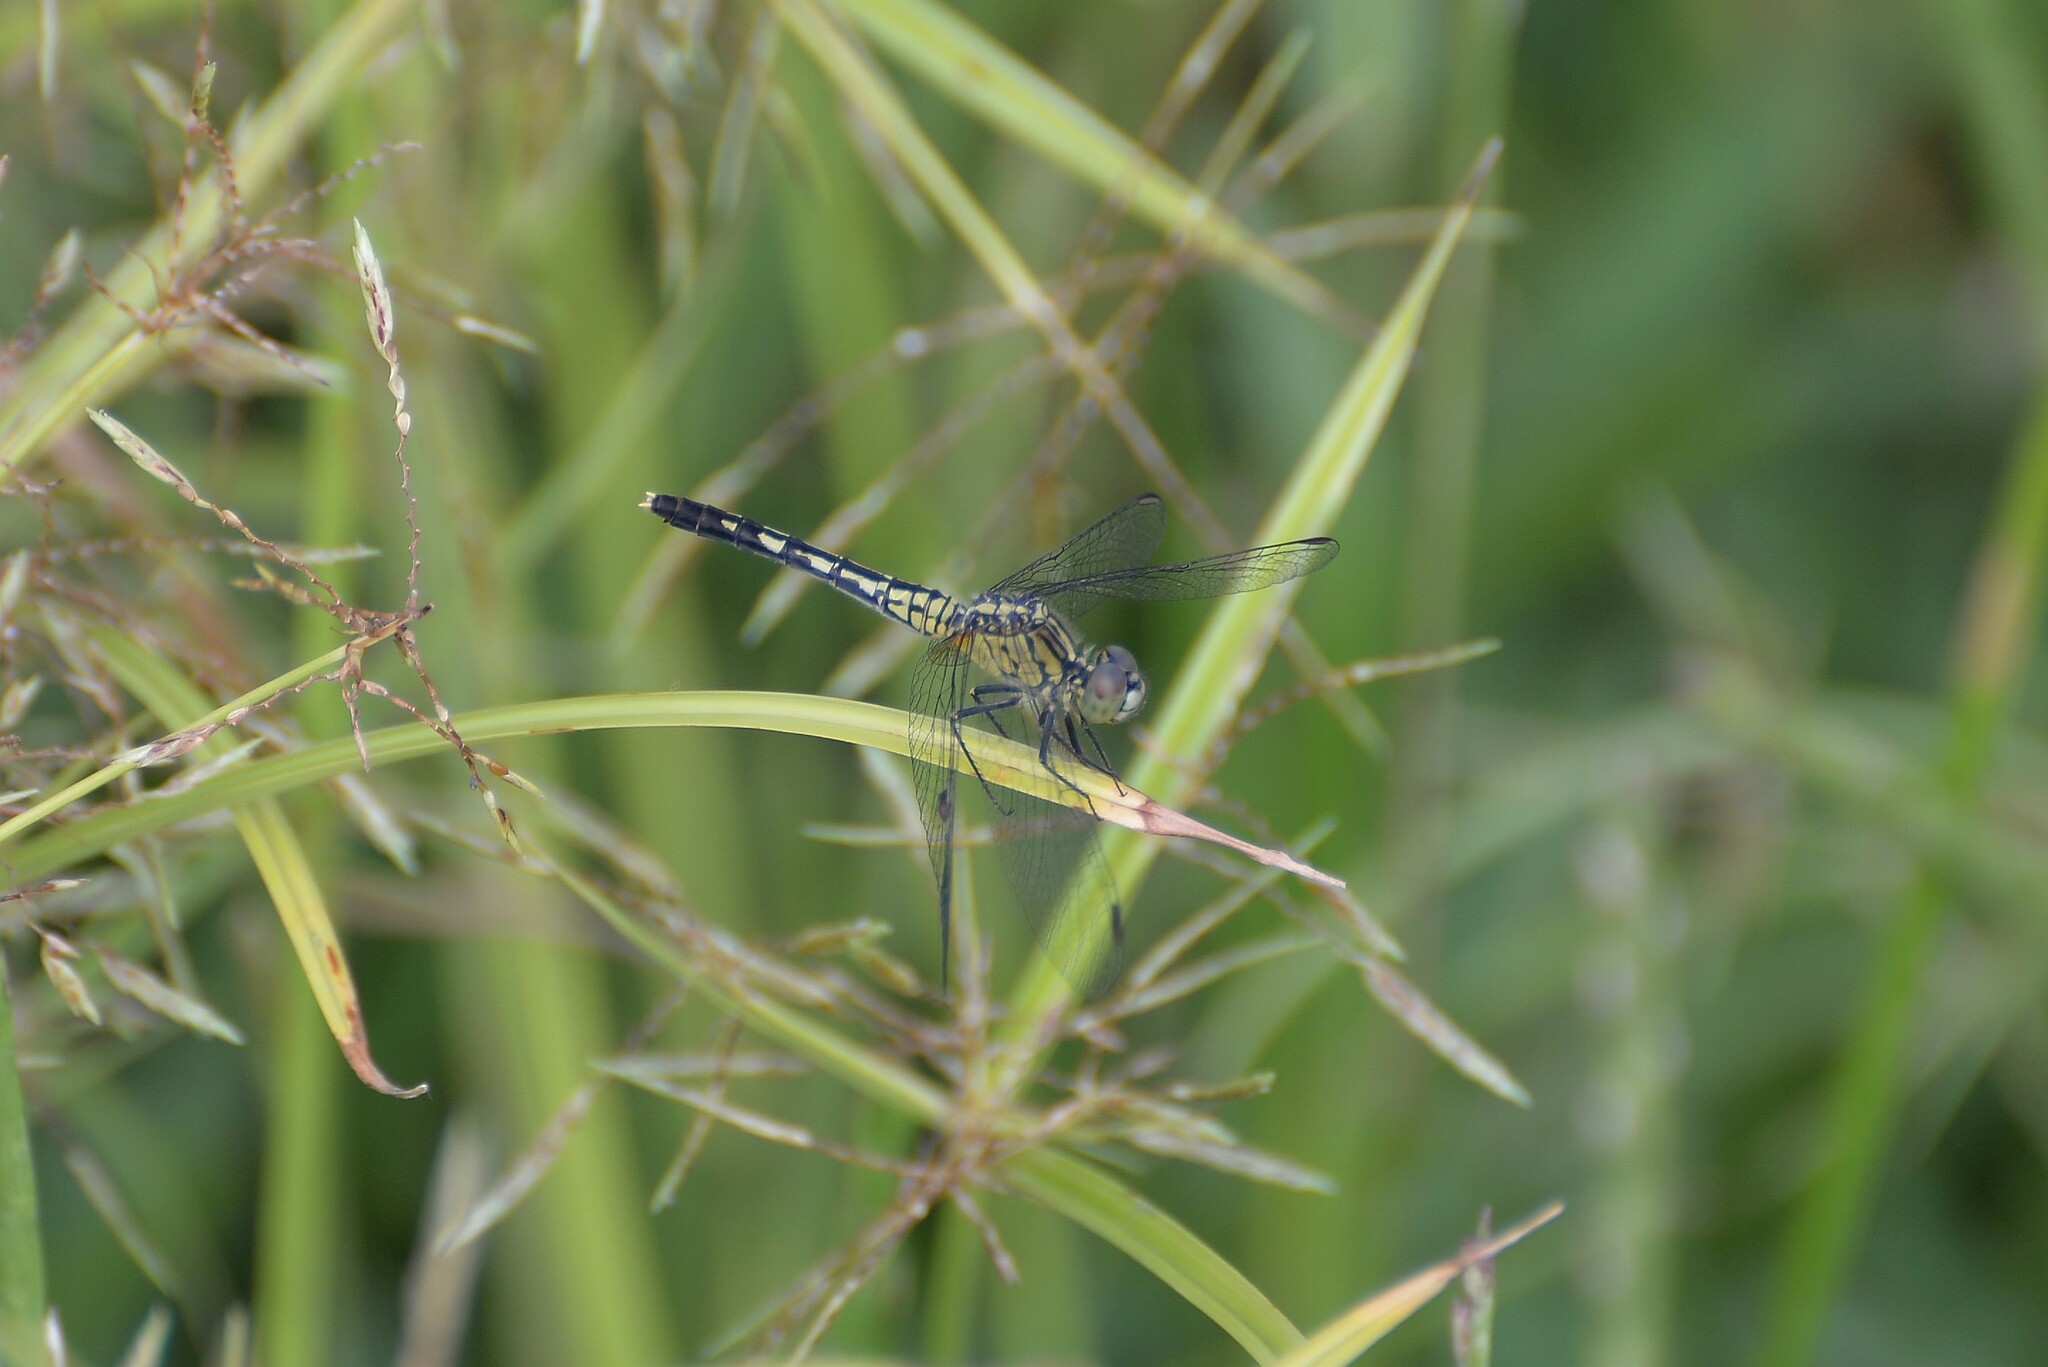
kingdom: Animalia
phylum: Arthropoda
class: Insecta
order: Odonata
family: Libellulidae
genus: Diplacodes
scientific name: Diplacodes trivialis
